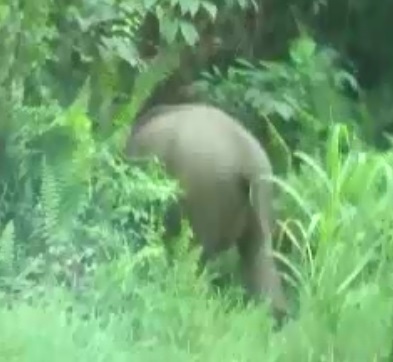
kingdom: Animalia
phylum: Chordata
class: Mammalia
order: Proboscidea
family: Elephantidae
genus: Elephas
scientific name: Elephas maximus
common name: Asian elephant
